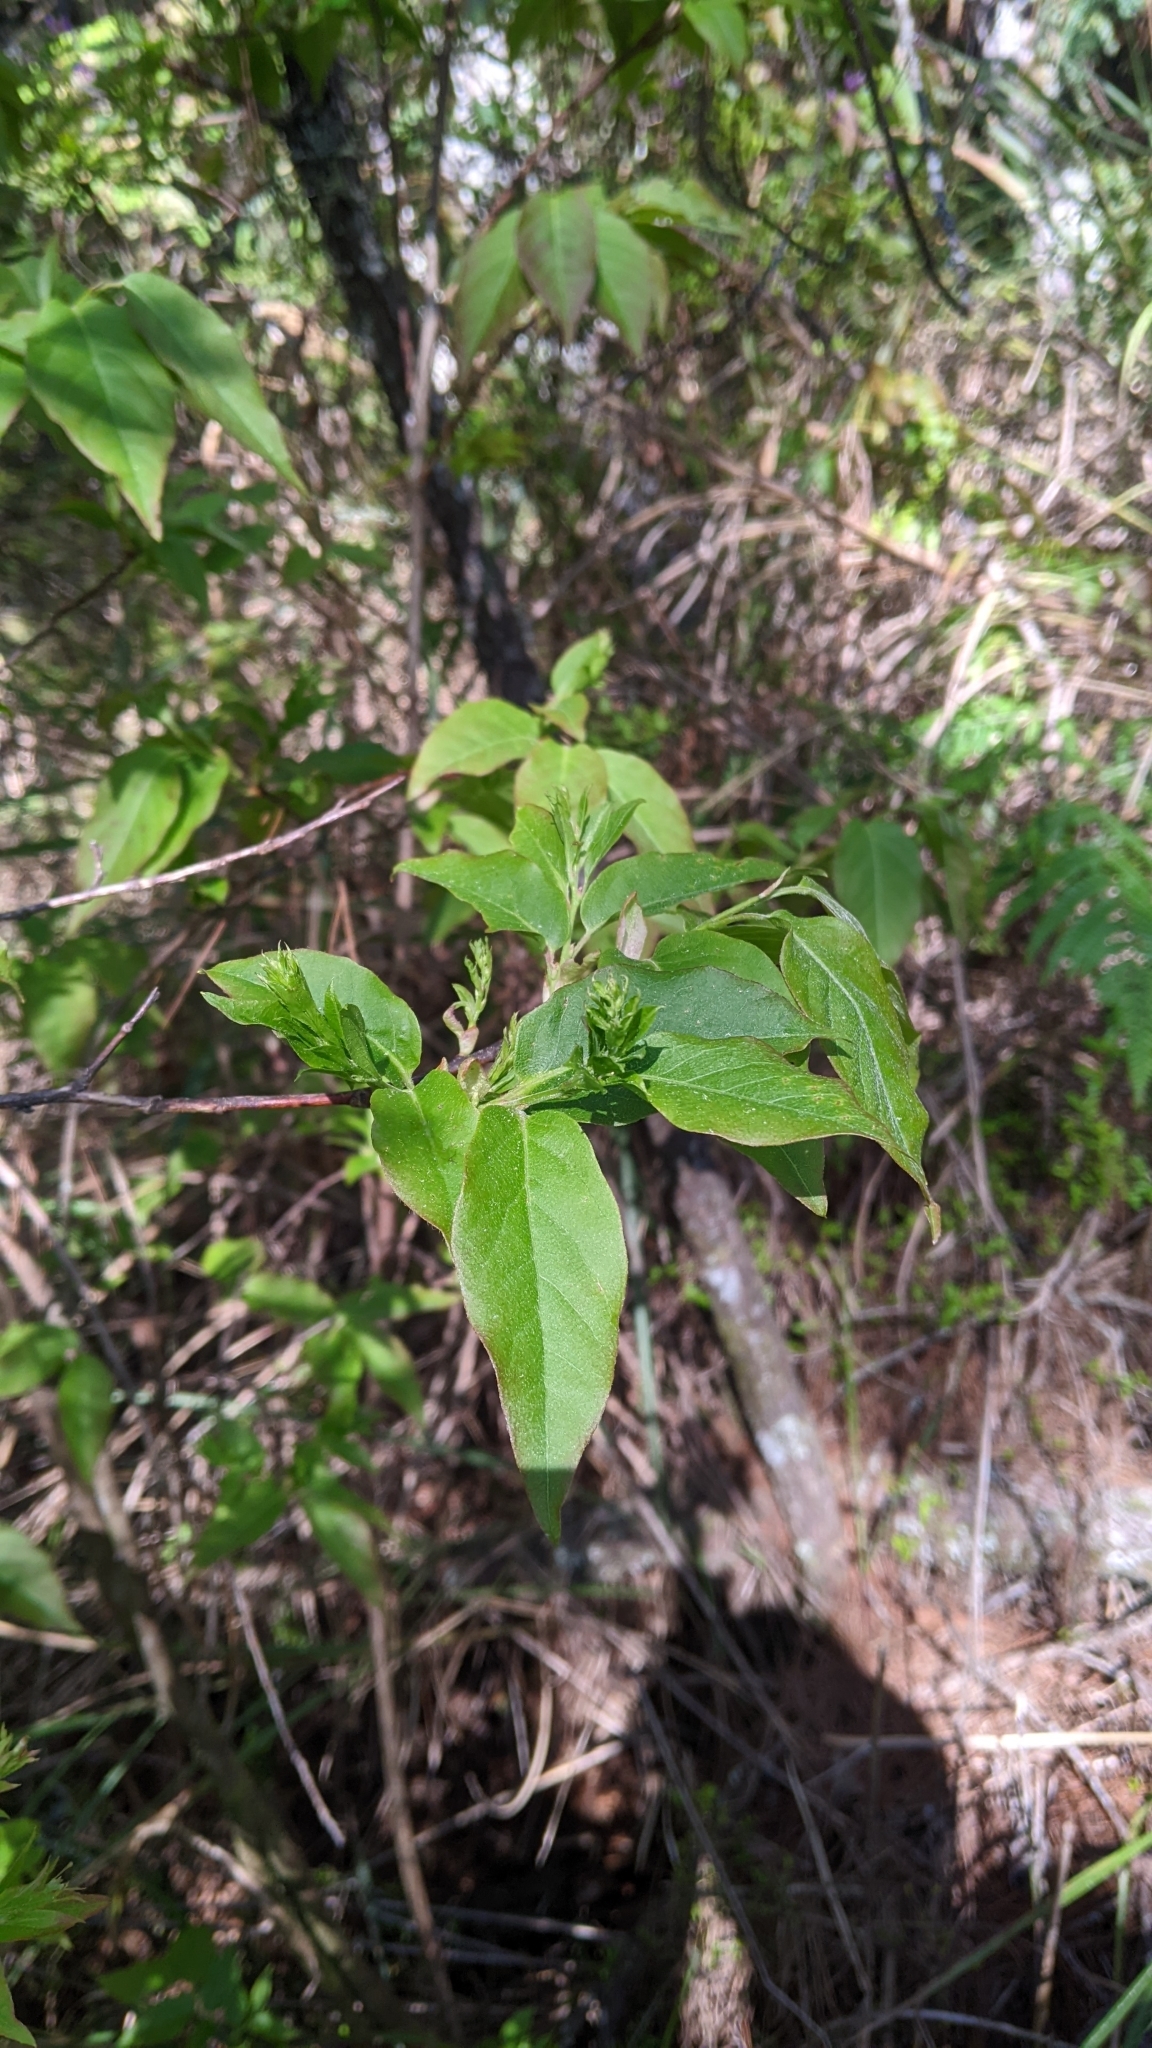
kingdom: Plantae
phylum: Tracheophyta
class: Magnoliopsida
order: Ericales
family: Ericaceae
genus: Lyonia
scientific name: Lyonia ovalifolia
